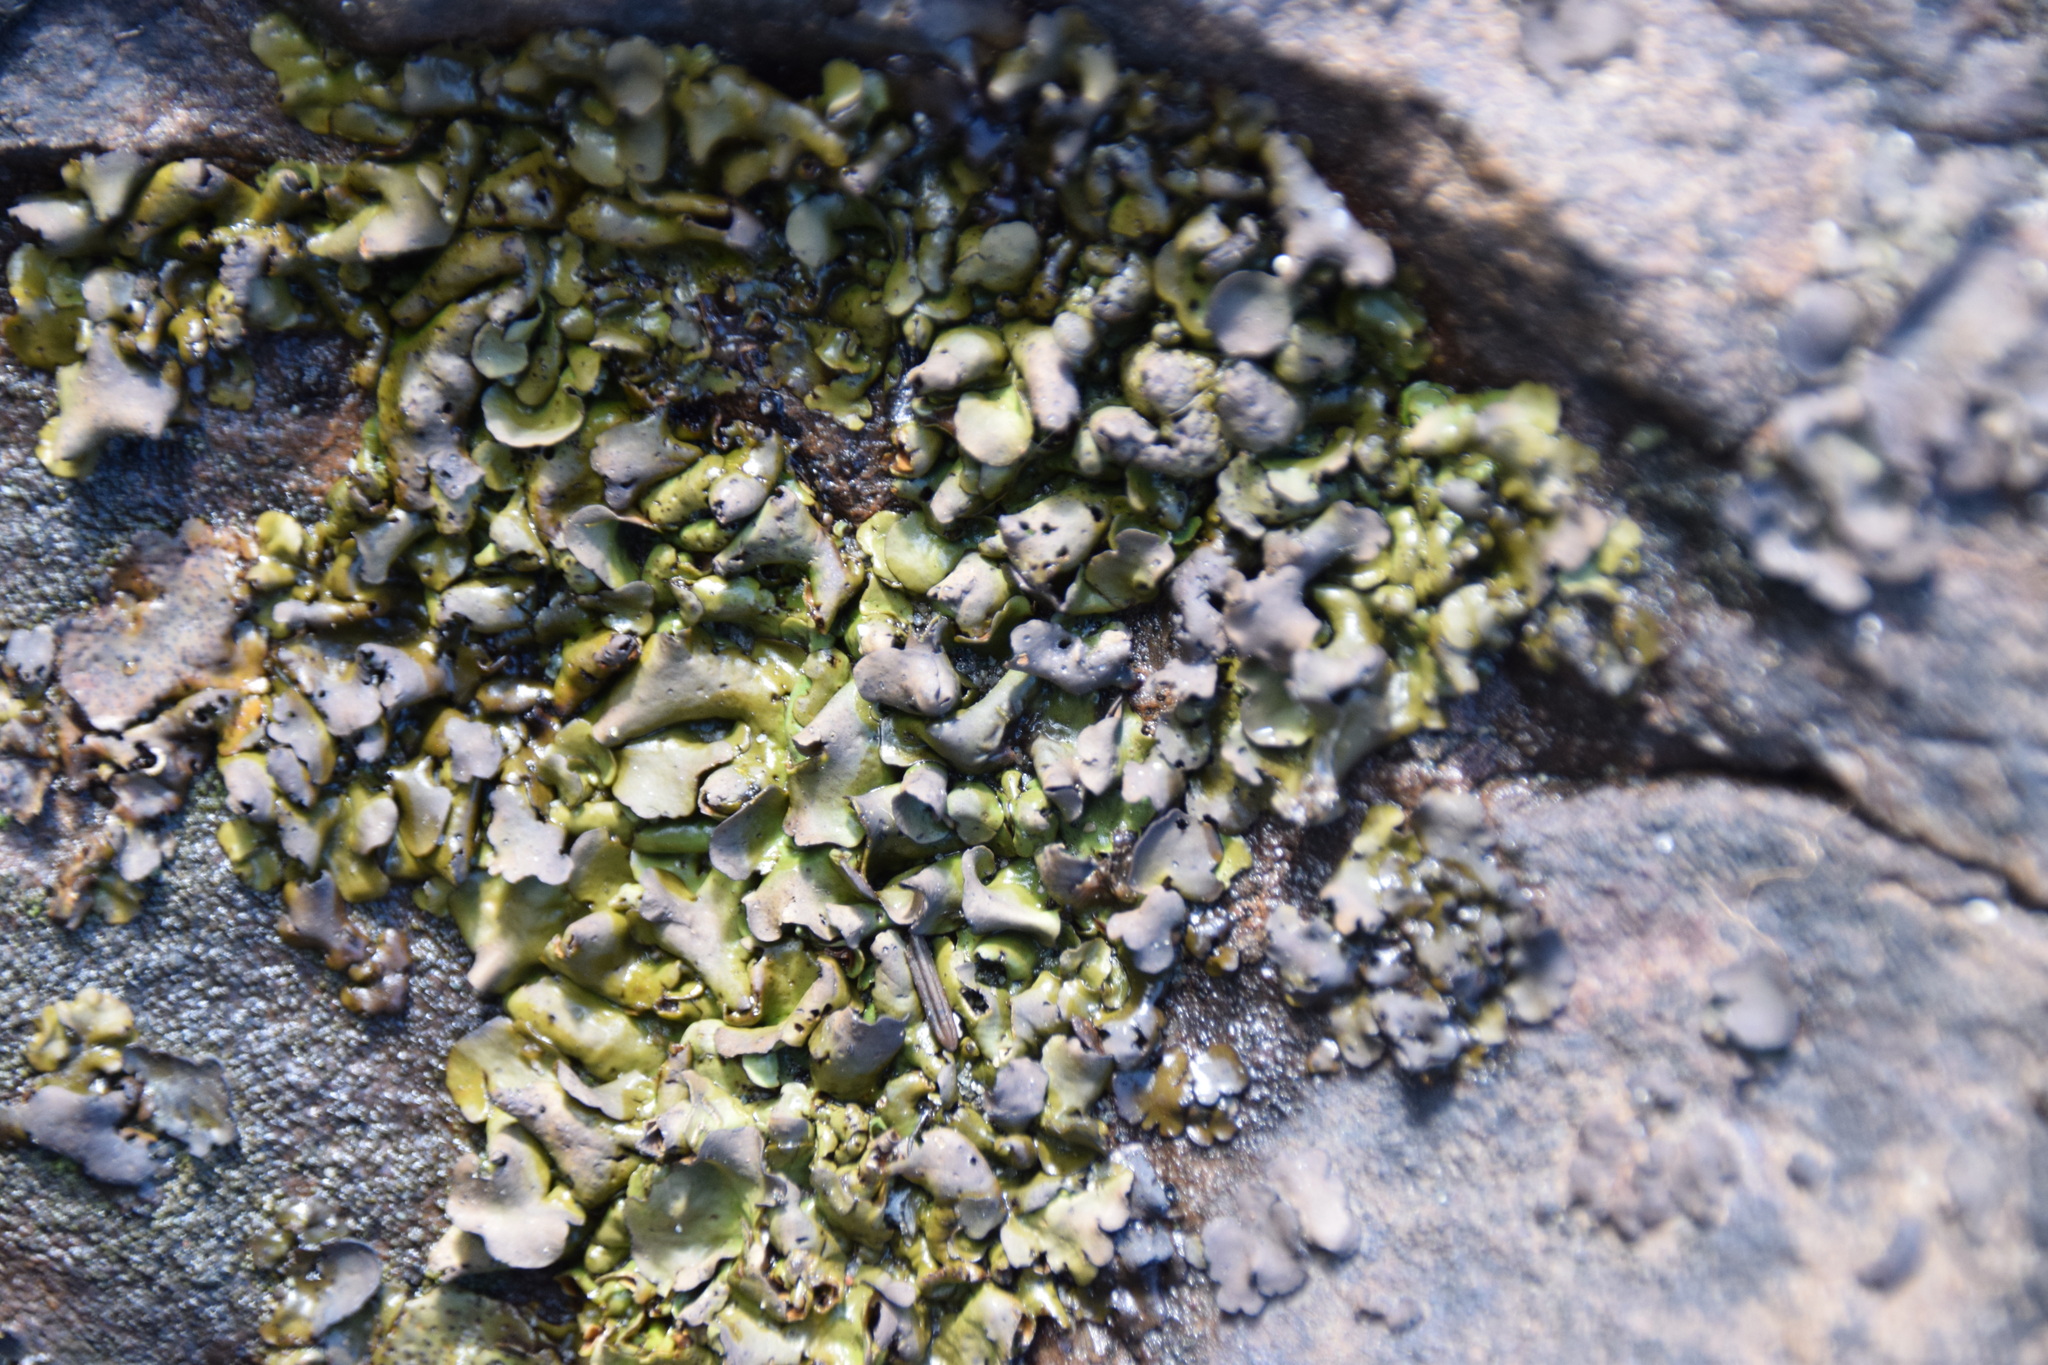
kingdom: Fungi
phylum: Ascomycota
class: Eurotiomycetes
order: Verrucariales
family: Verrucariaceae
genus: Dermatocarpon
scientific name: Dermatocarpon luridum
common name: Brook stippleback lichen
